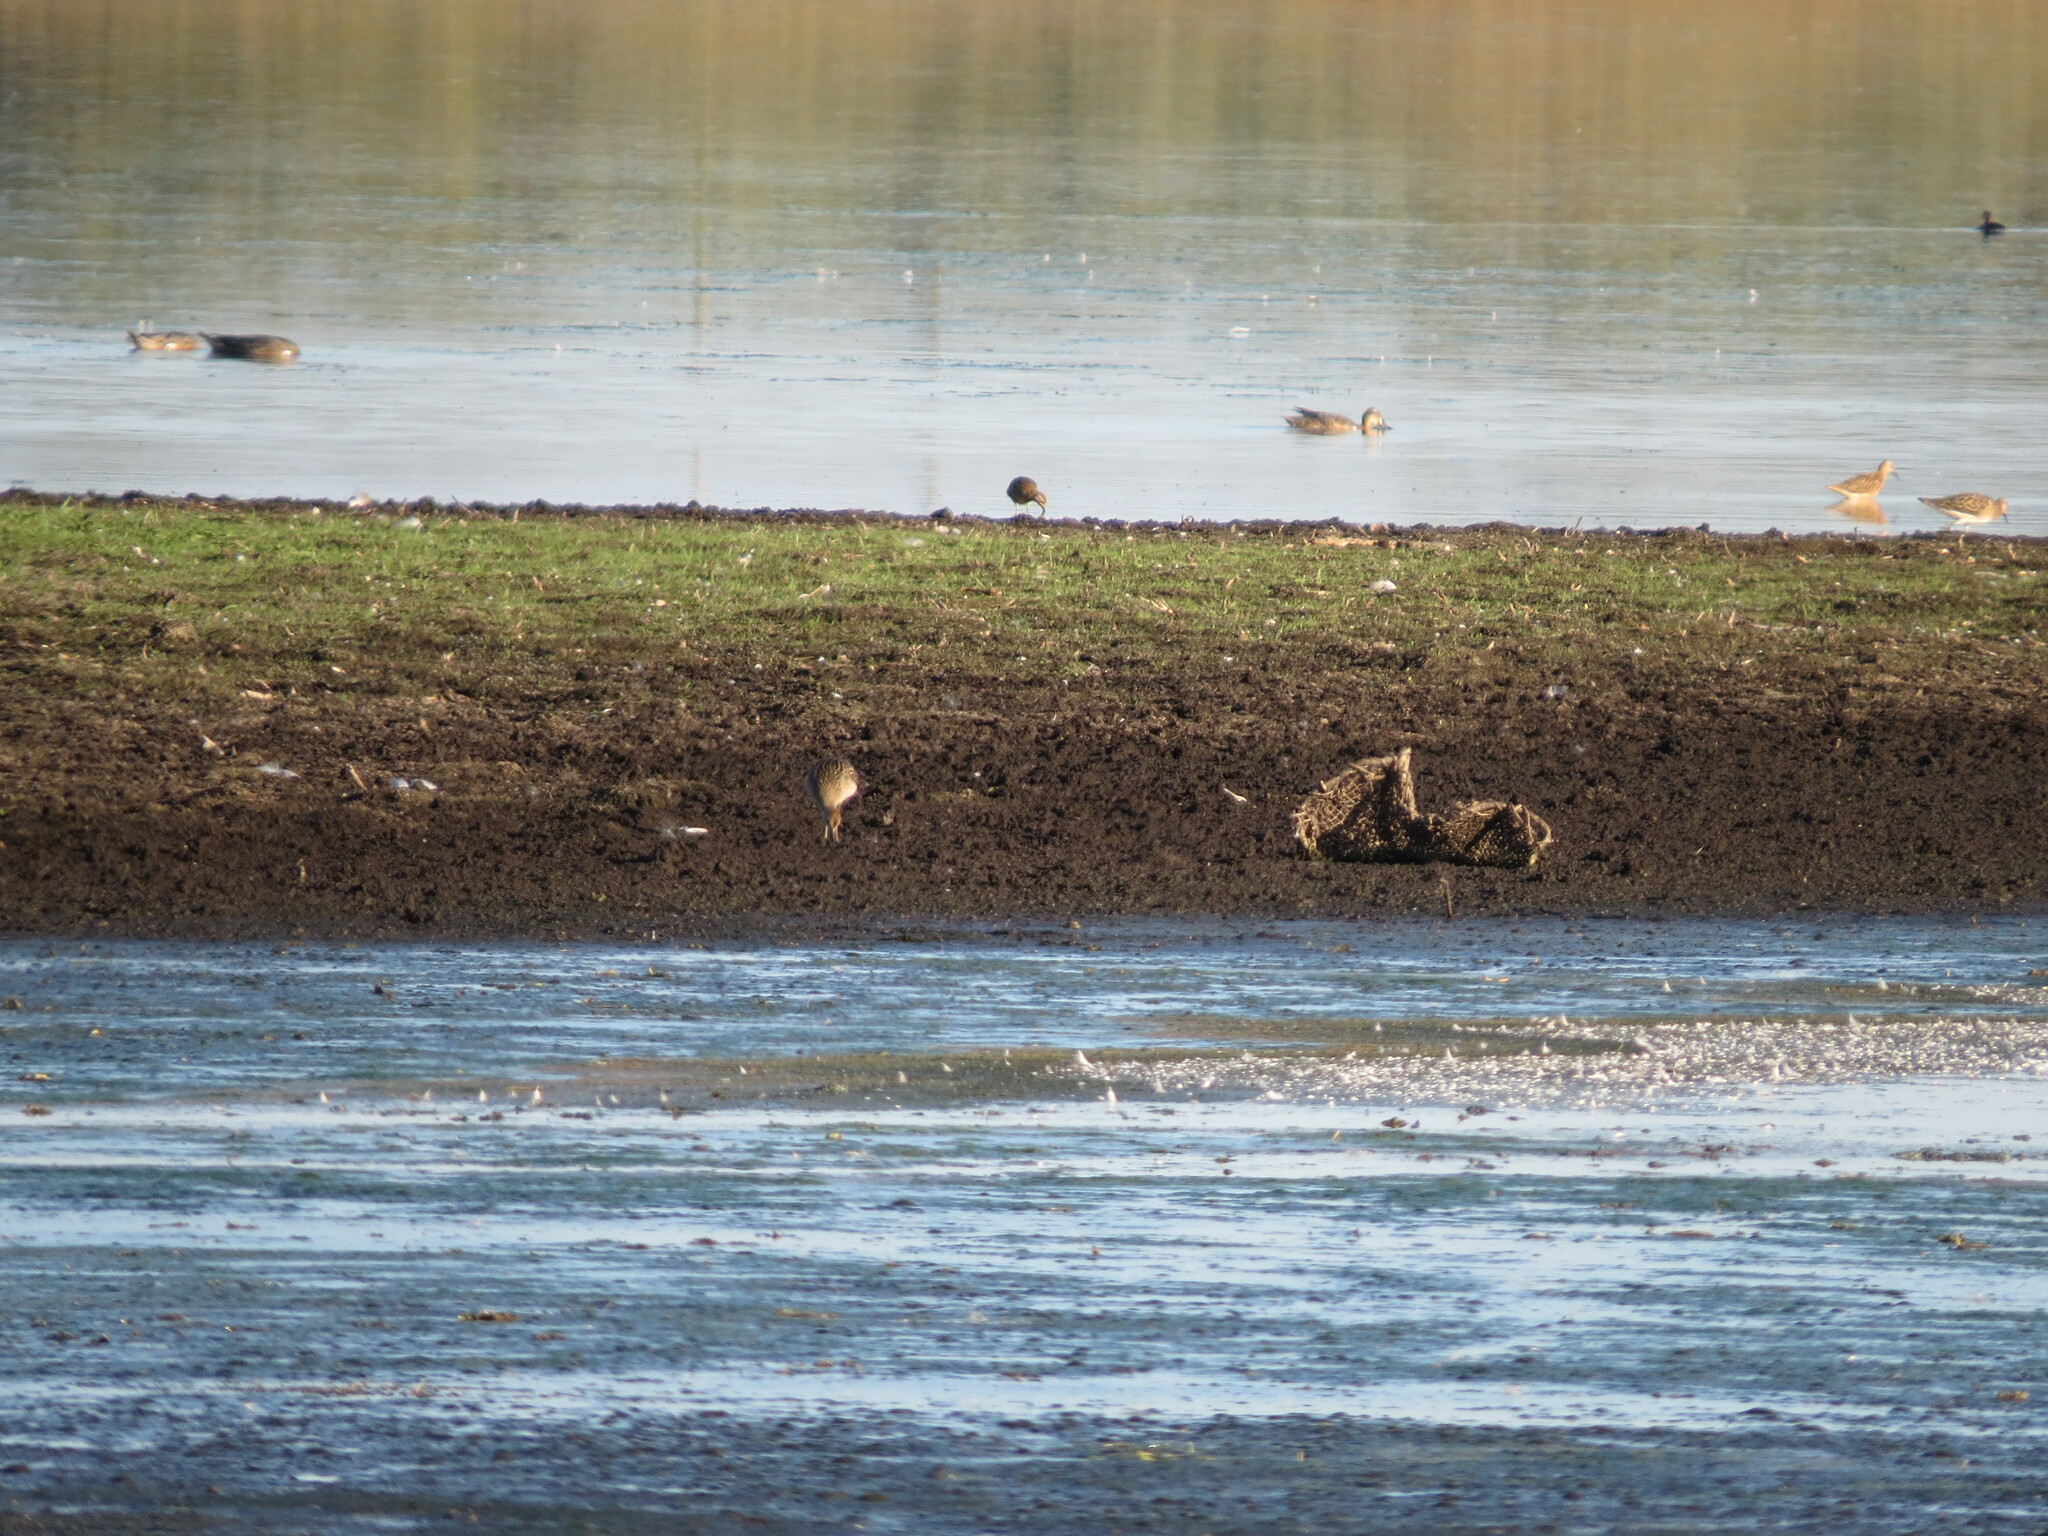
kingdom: Animalia
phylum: Chordata
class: Aves
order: Charadriiformes
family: Scolopacidae
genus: Calidris
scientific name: Calidris pugnax
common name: Ruff
